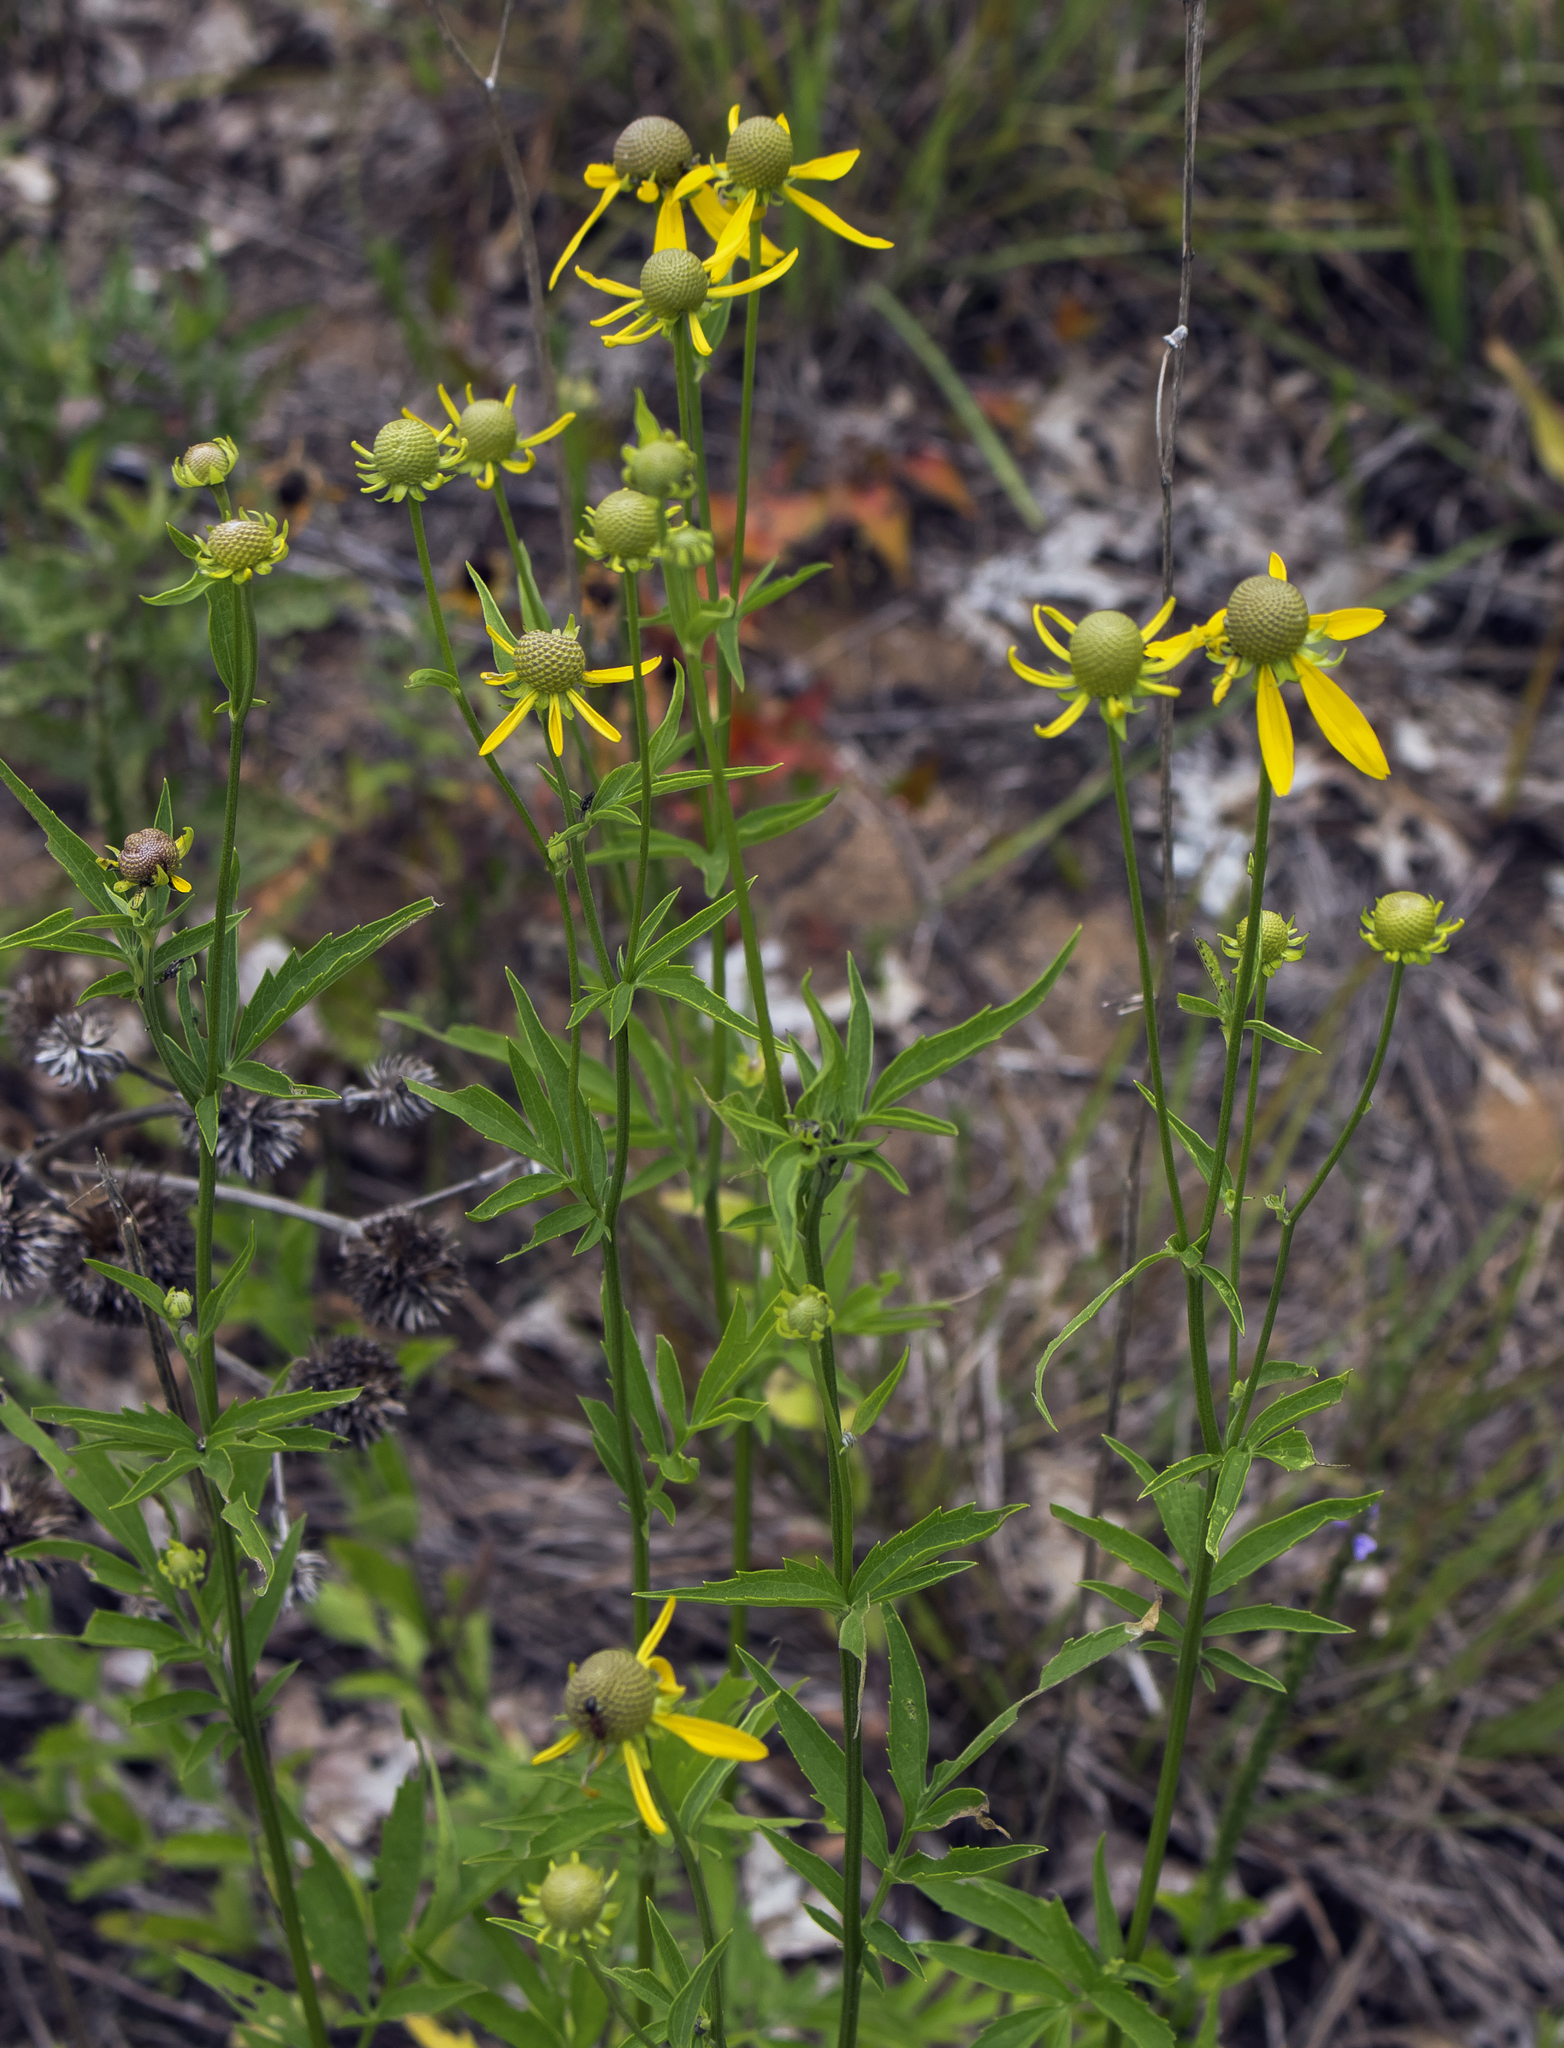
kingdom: Plantae
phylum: Tracheophyta
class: Magnoliopsida
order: Asterales
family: Asteraceae
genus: Ratibida
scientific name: Ratibida pinnata
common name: Drooping prairie-coneflower
